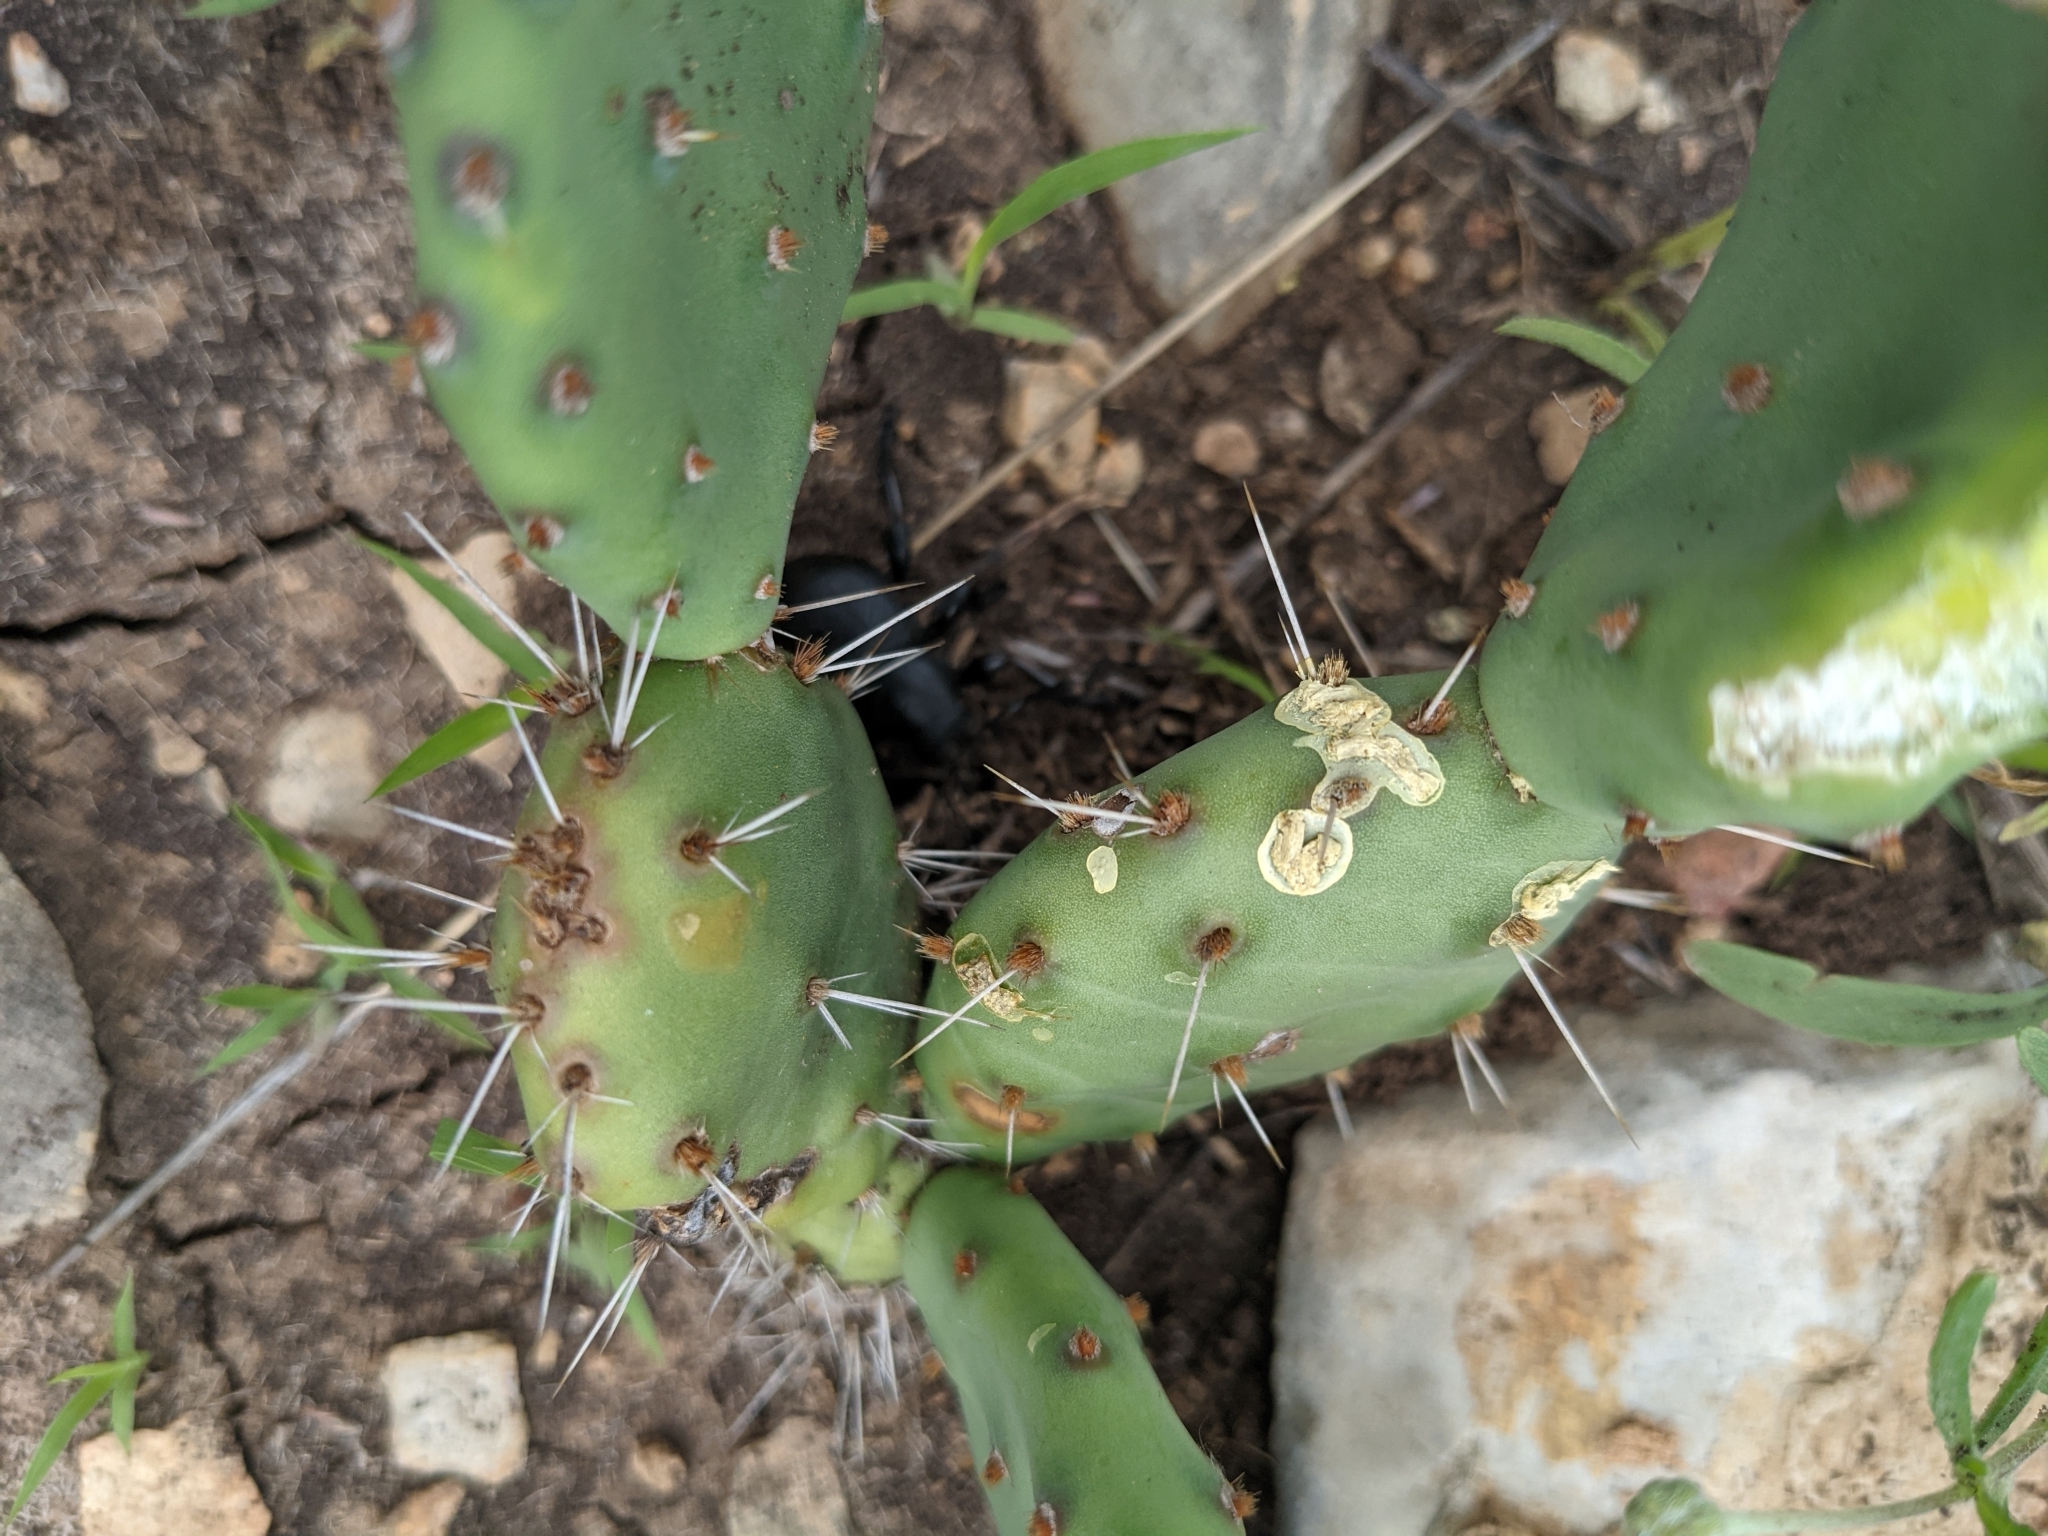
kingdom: Animalia
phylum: Arthropoda
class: Insecta
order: Coleoptera
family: Cerambycidae
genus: Moneilema
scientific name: Moneilema armatum
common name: Long-horned beetle
